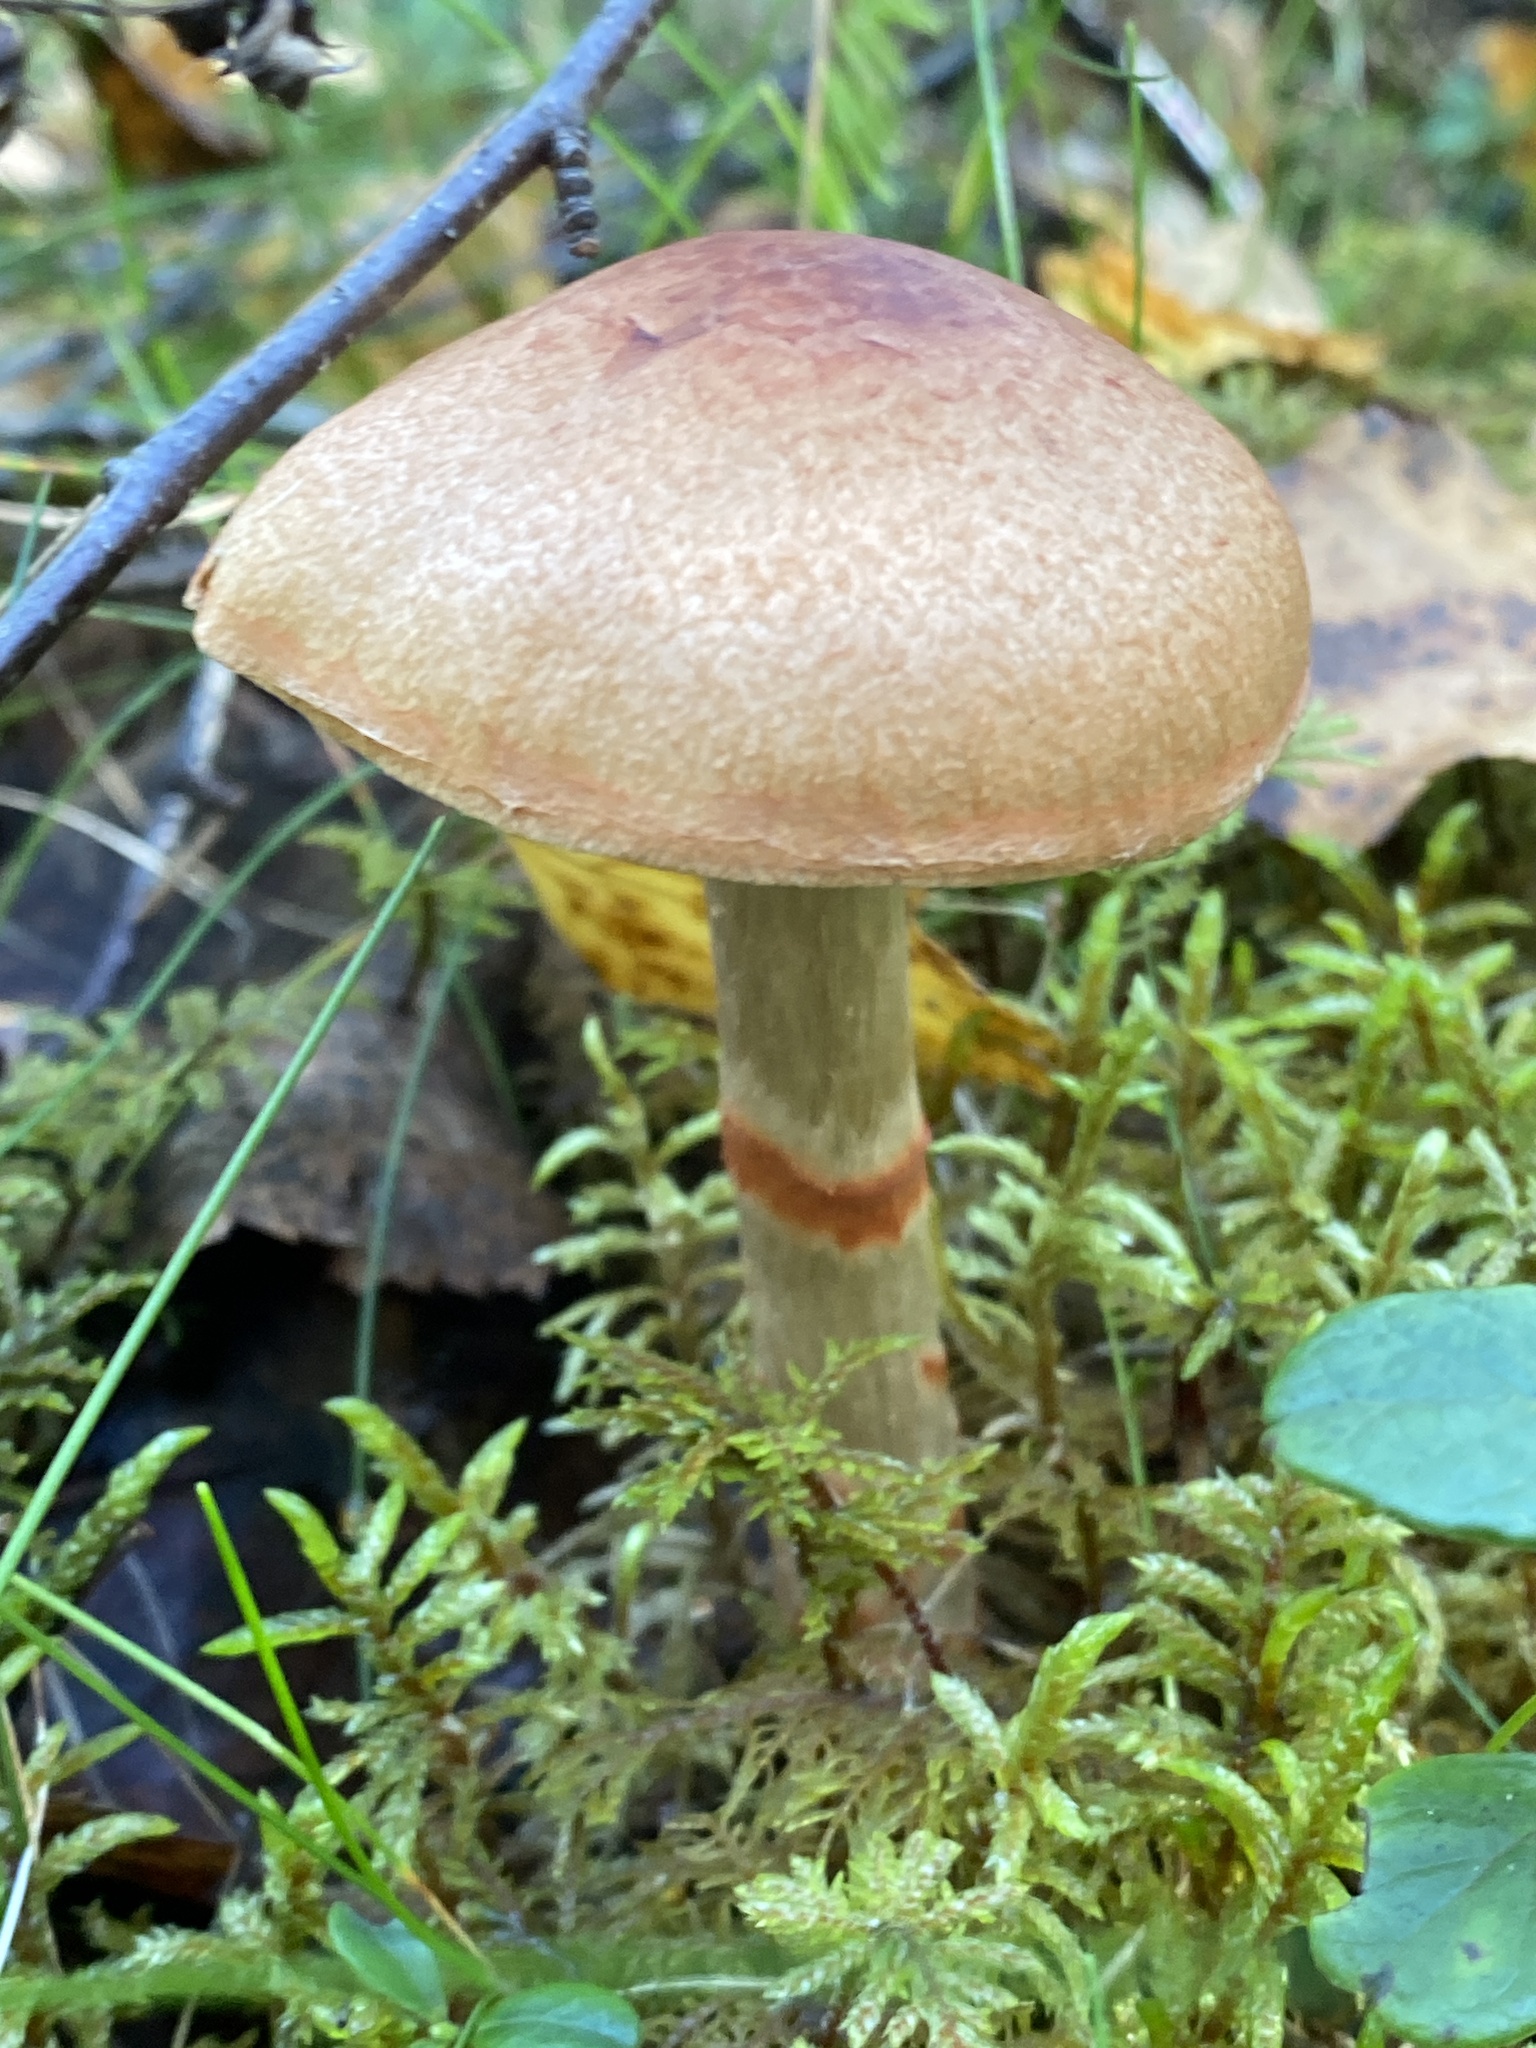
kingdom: Fungi
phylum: Basidiomycota
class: Agaricomycetes
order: Agaricales
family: Cortinariaceae
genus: Cortinarius
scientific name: Cortinarius armillatus
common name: Red banded webcap
